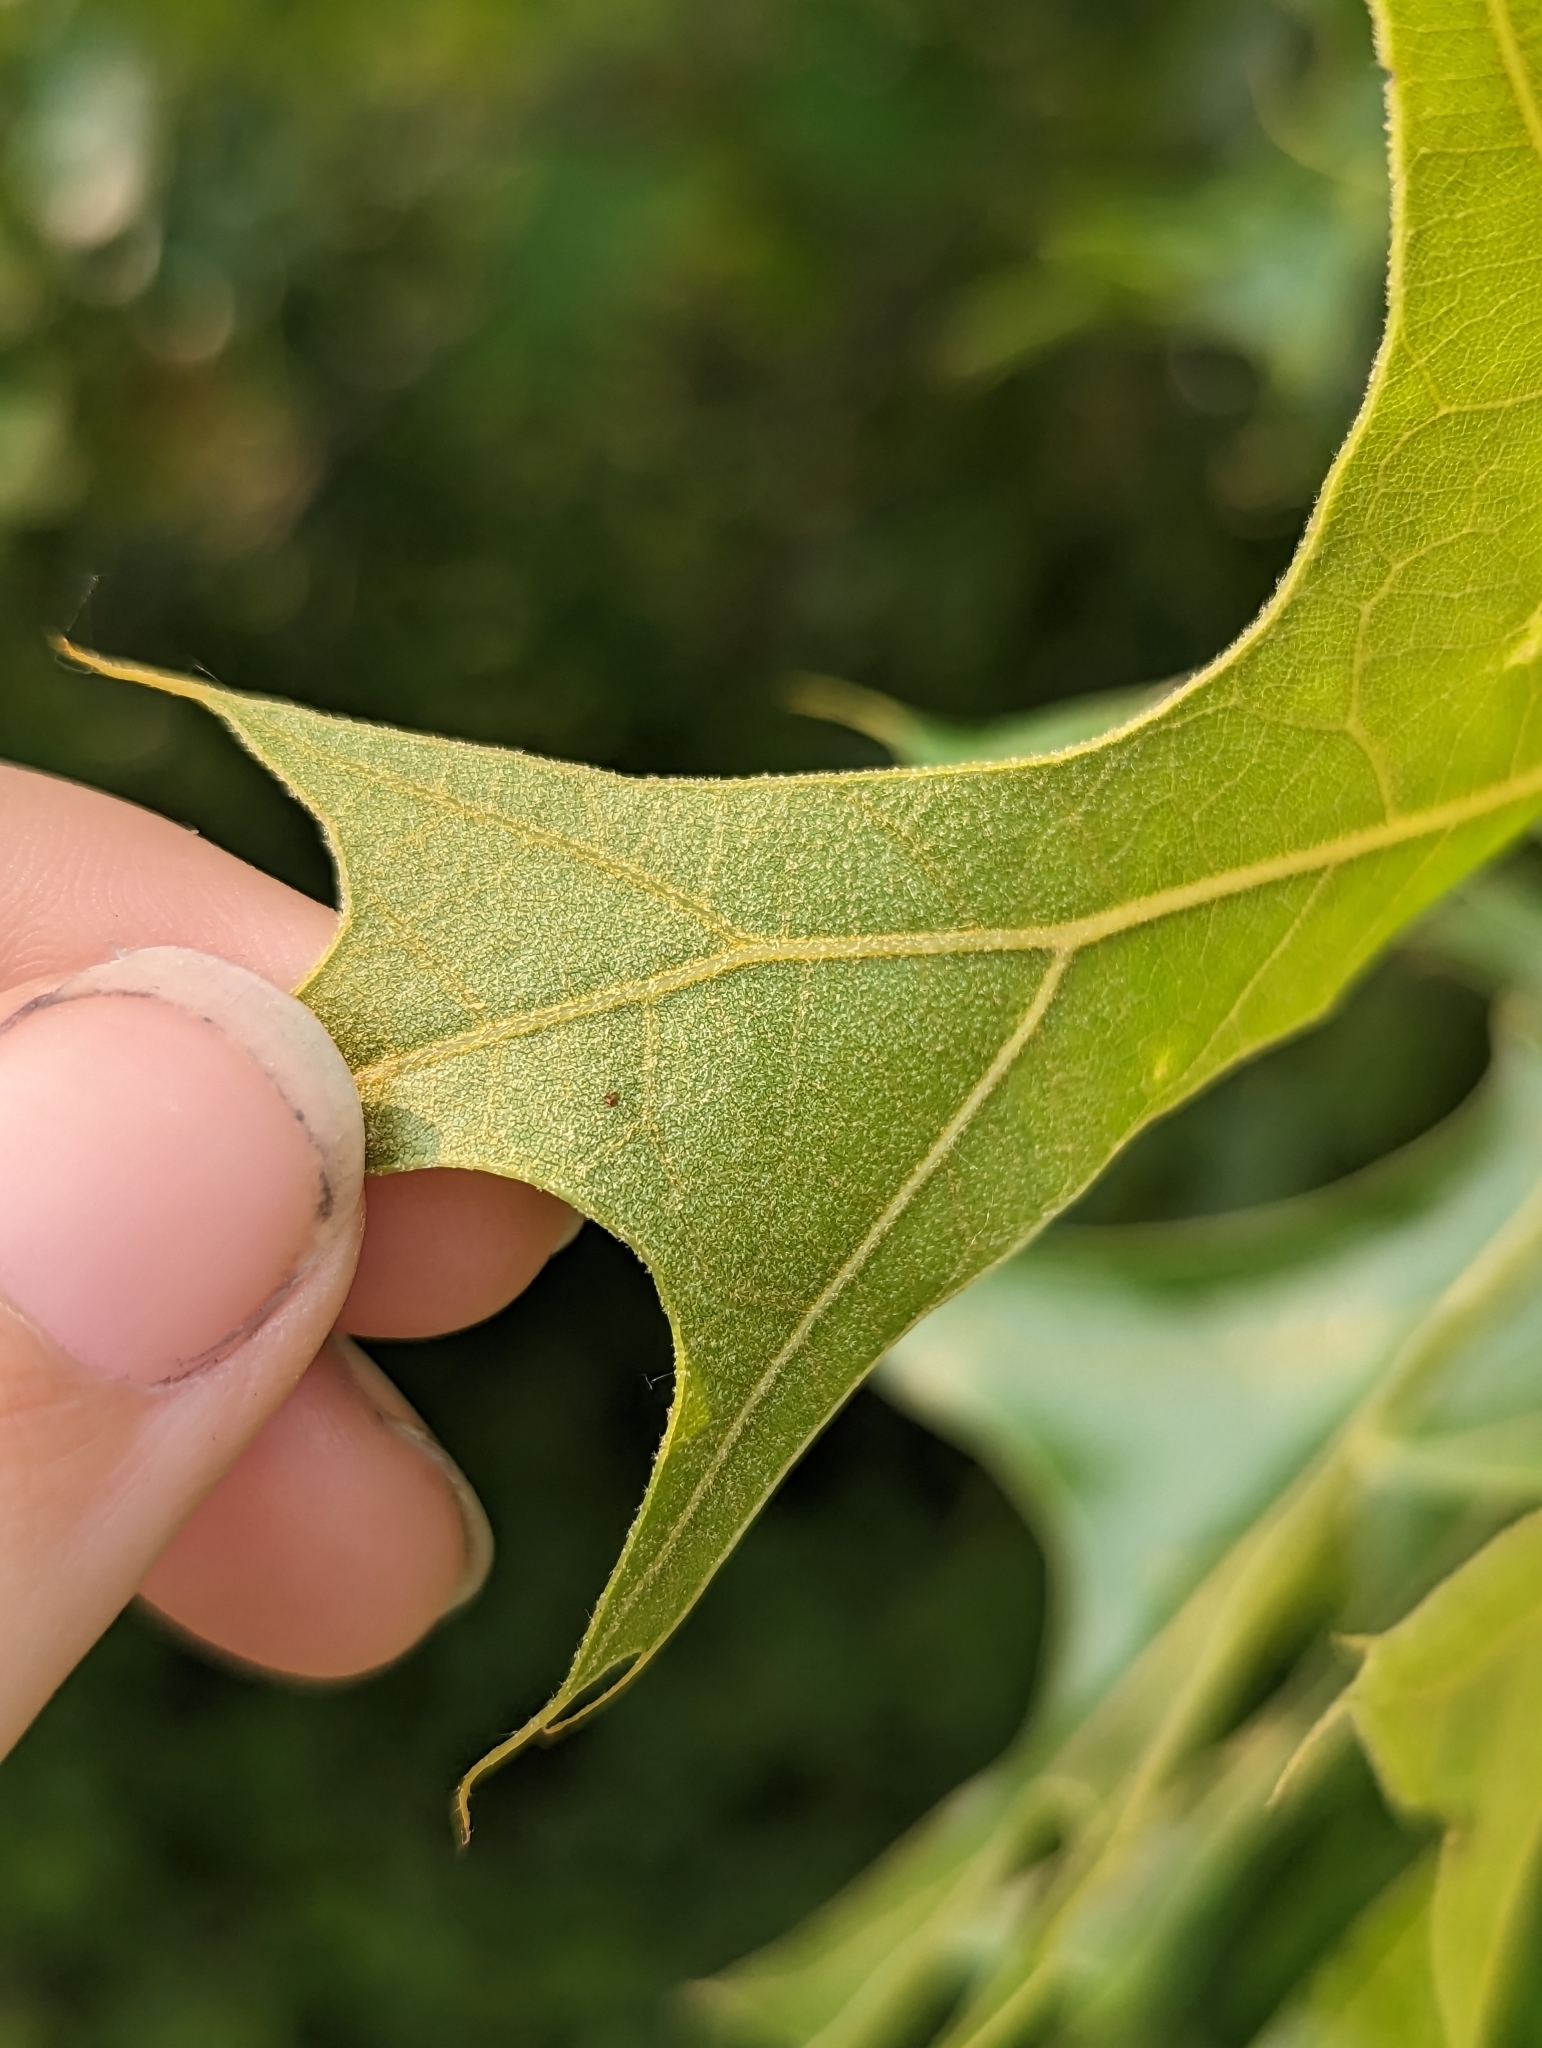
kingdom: Plantae
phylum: Tracheophyta
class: Magnoliopsida
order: Fagales
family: Fagaceae
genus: Quercus
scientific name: Quercus palustris
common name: Pin oak
